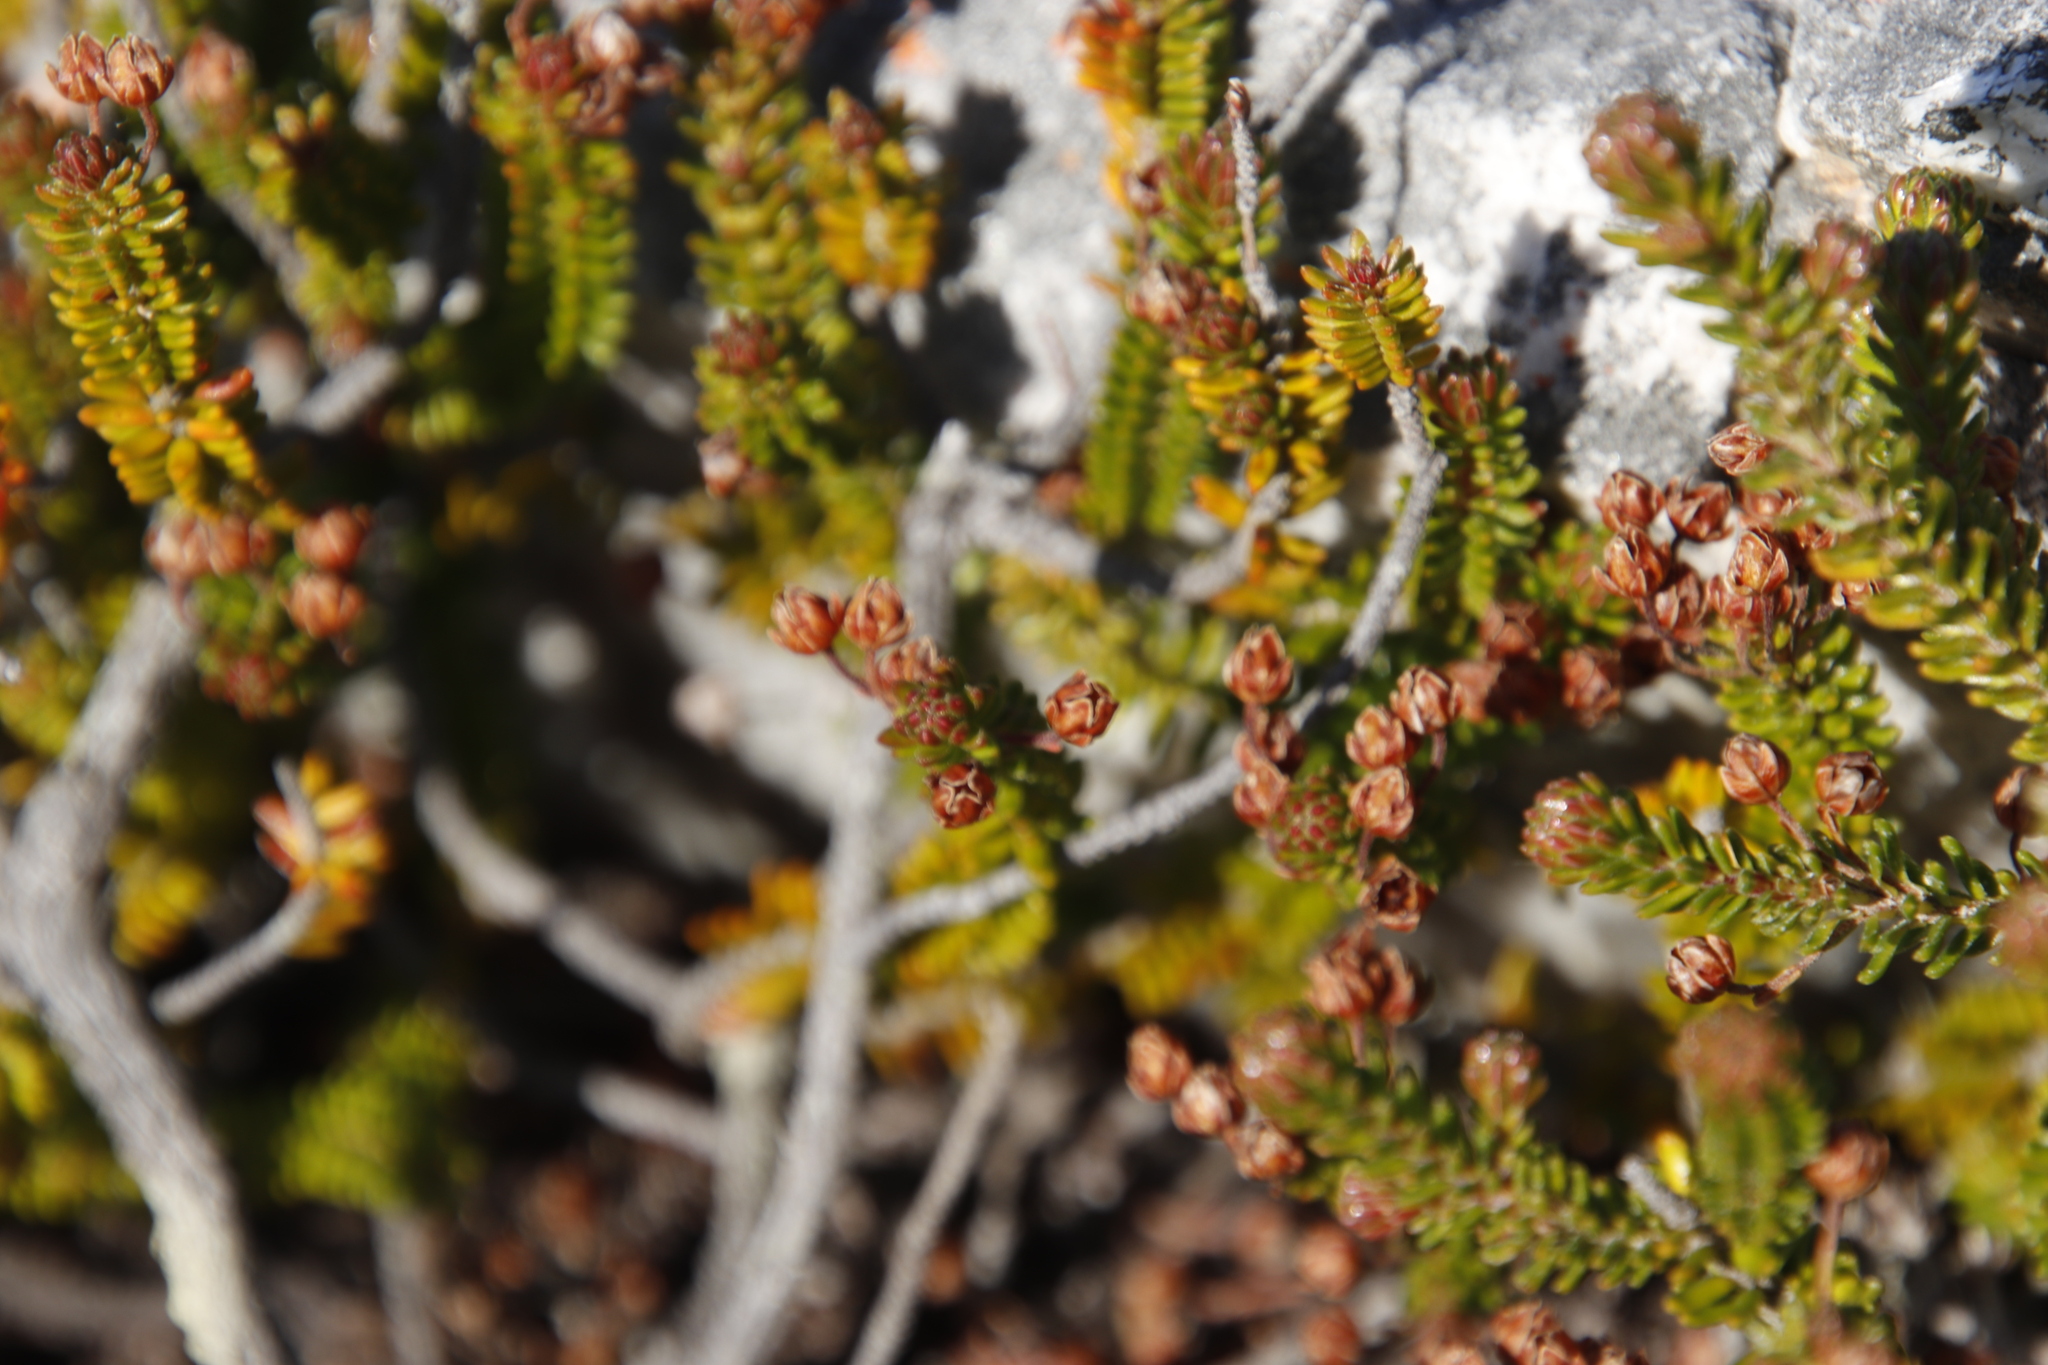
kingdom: Plantae
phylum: Tracheophyta
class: Magnoliopsida
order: Ericales
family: Ericaceae
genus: Erica
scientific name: Erica stokoei
